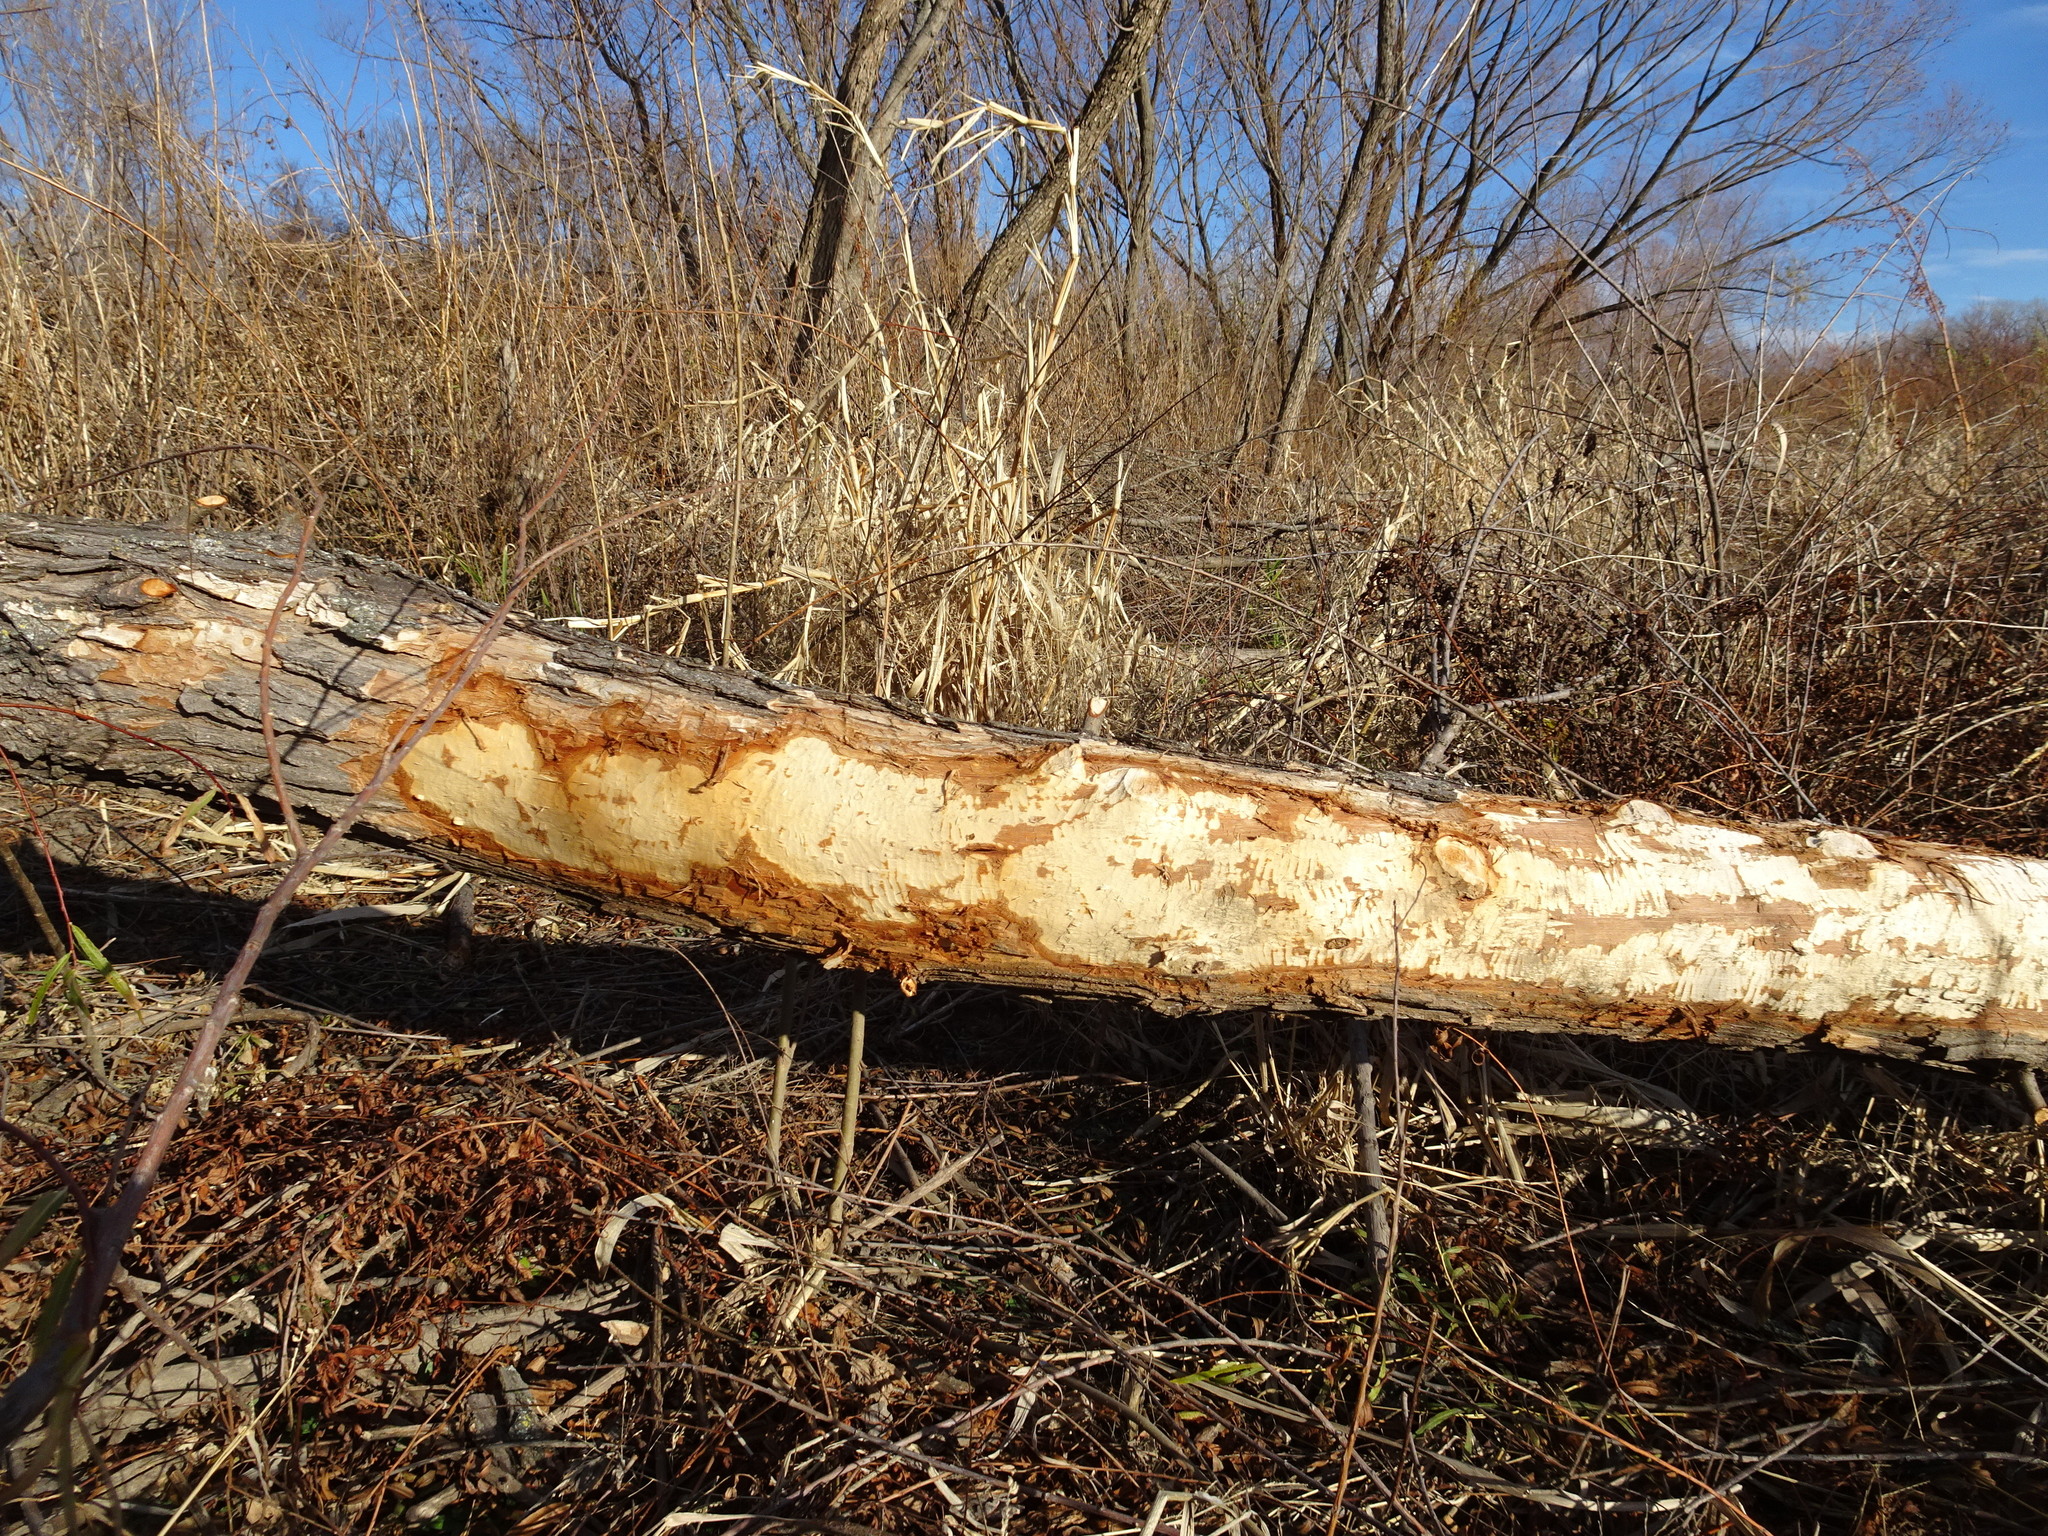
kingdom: Animalia
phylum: Chordata
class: Mammalia
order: Rodentia
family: Castoridae
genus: Castor
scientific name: Castor canadensis
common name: American beaver
